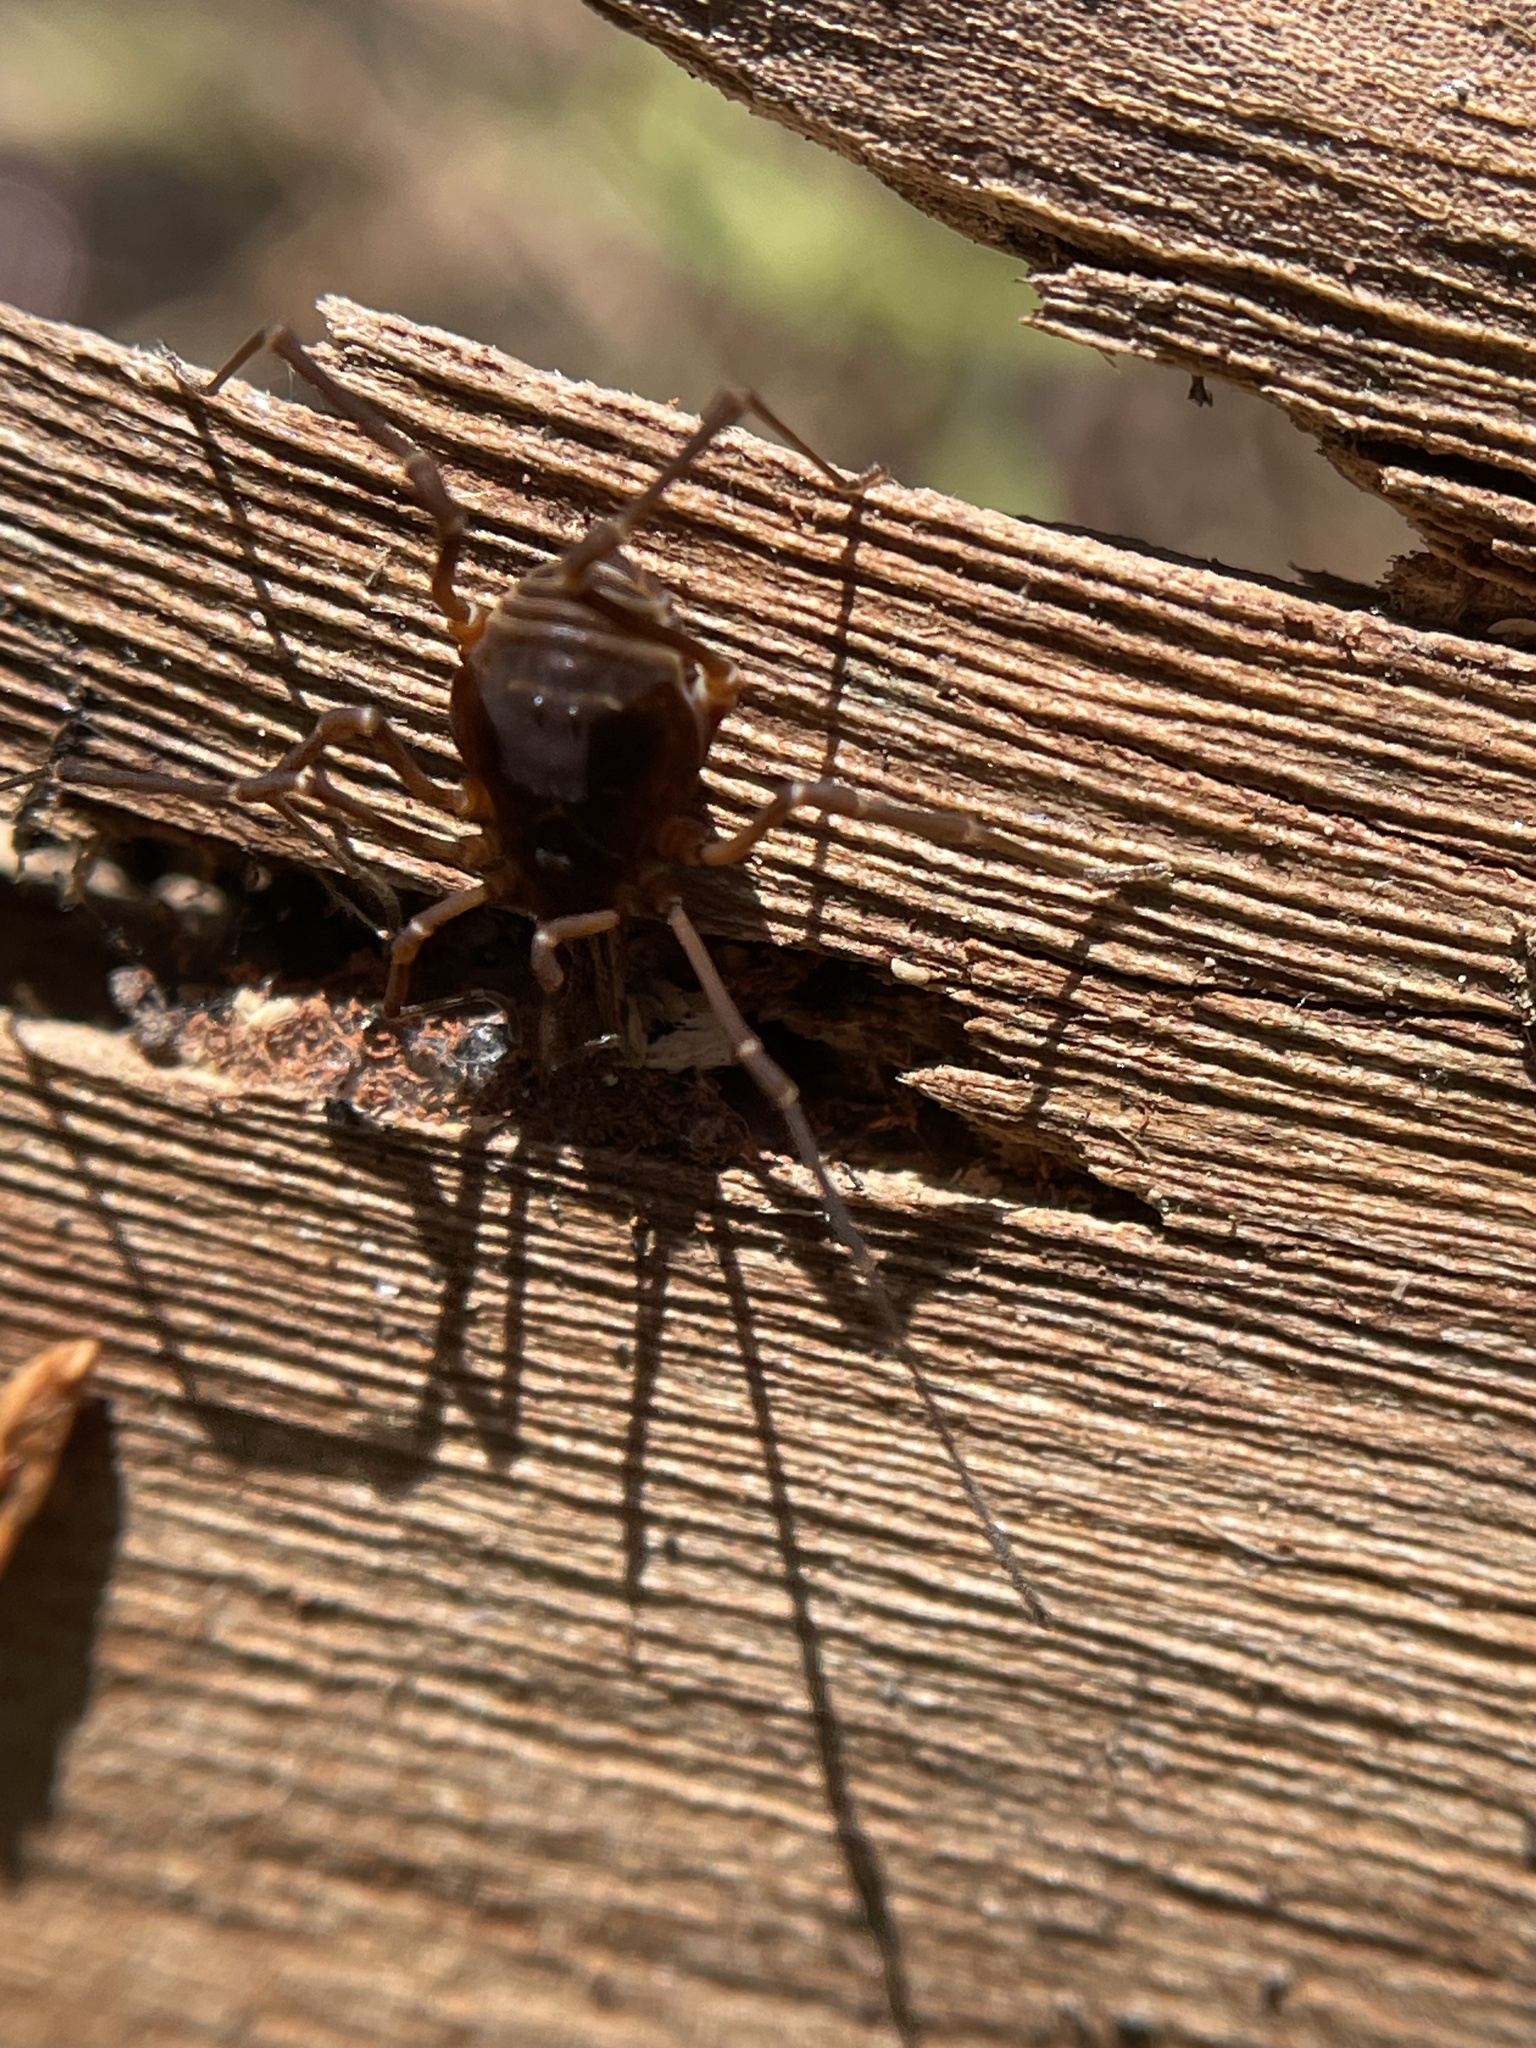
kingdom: Animalia
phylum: Arthropoda
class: Arachnida
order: Opiliones
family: Cosmetidae
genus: Libitioides
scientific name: Libitioides sayi
